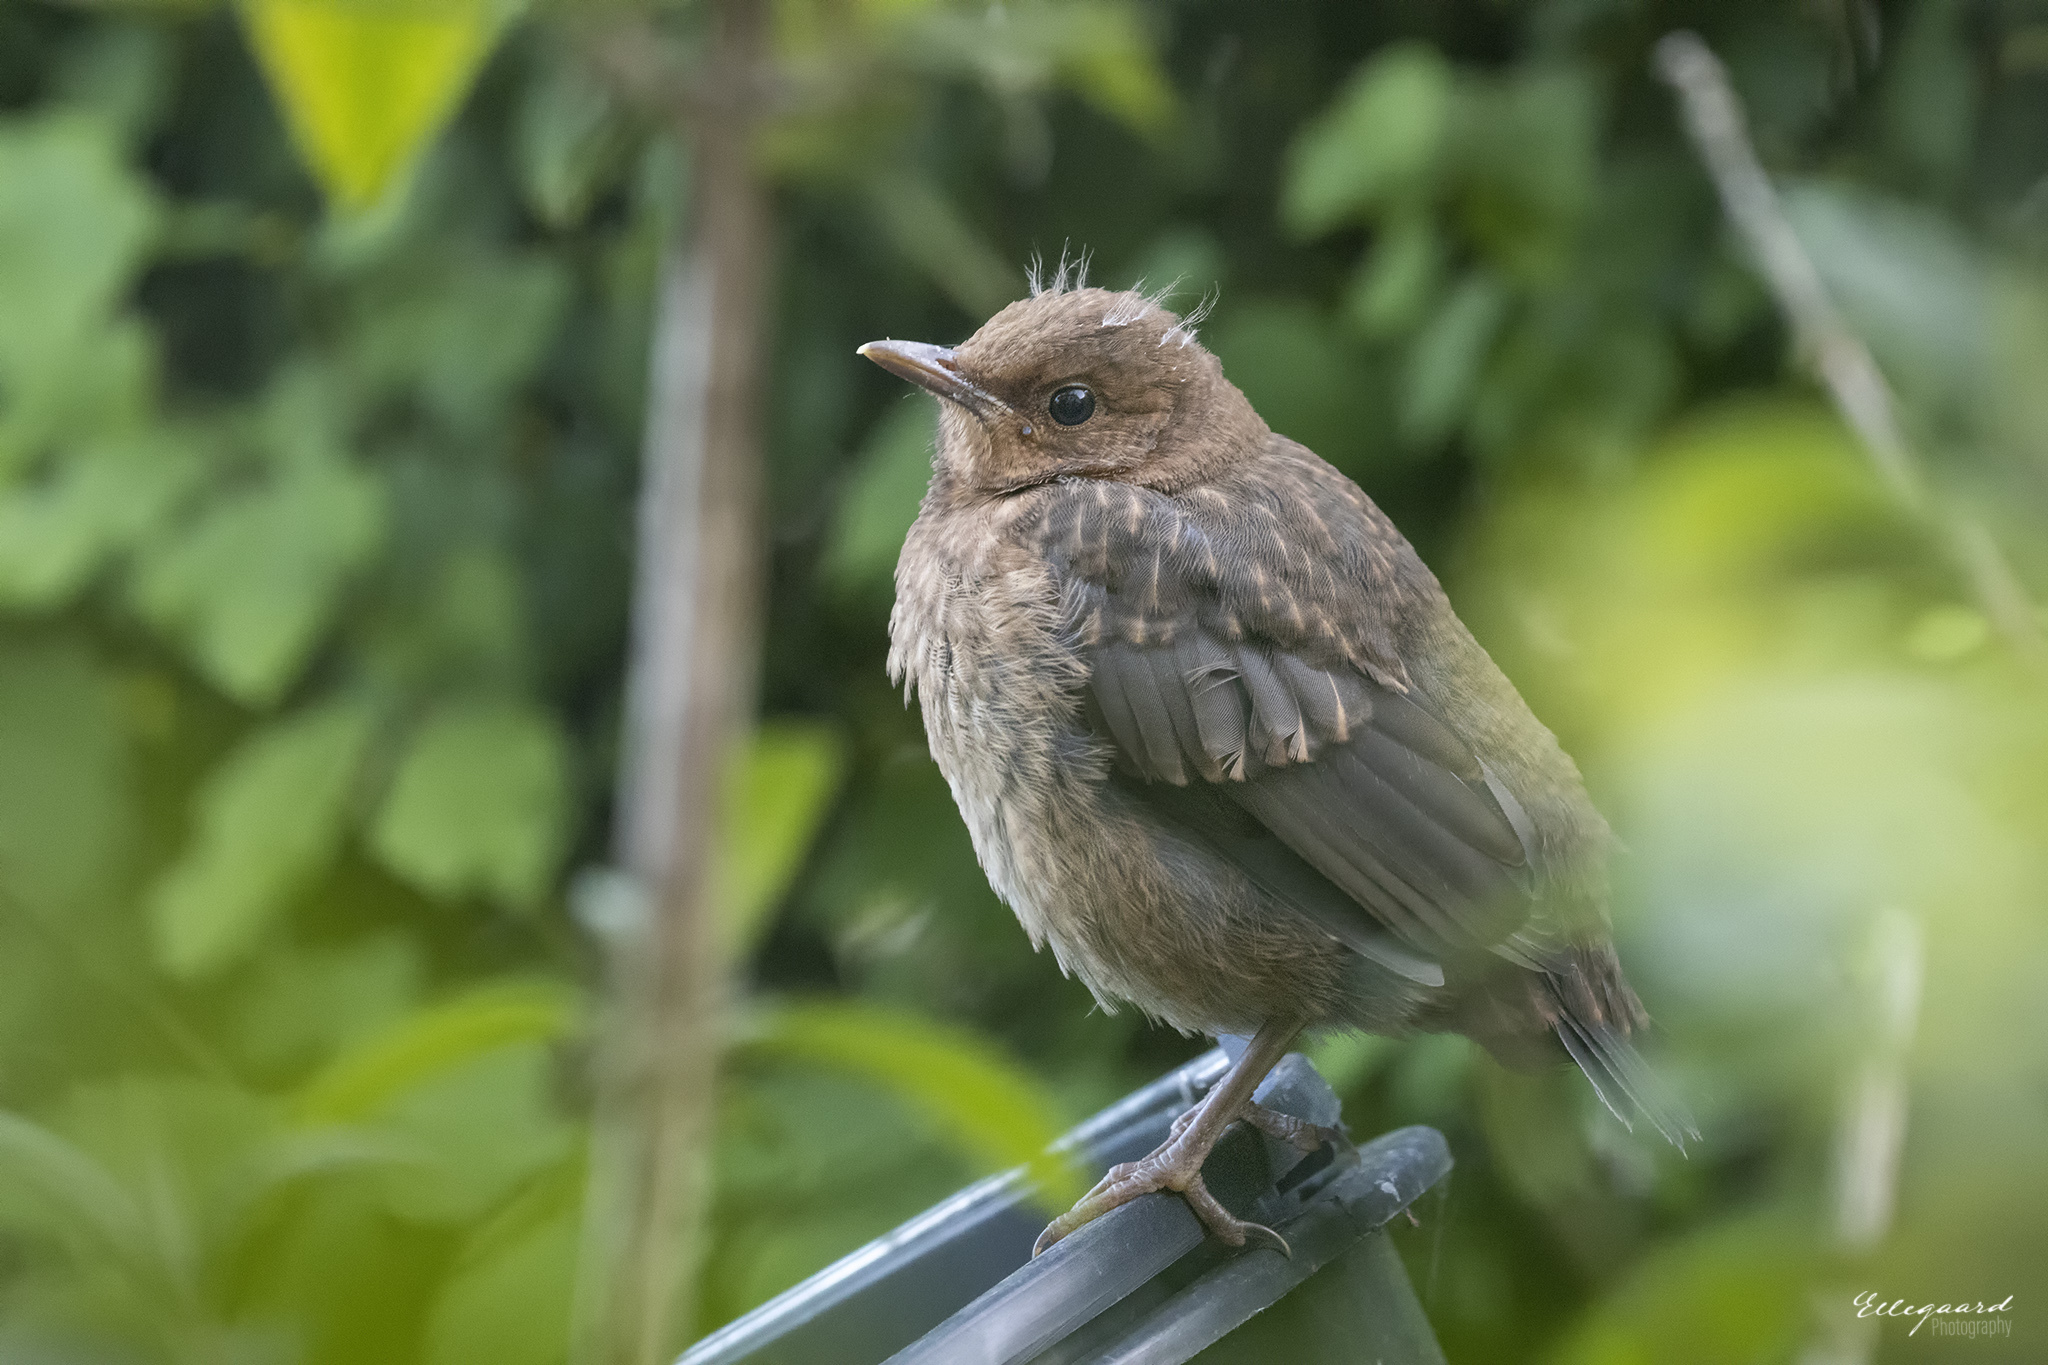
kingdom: Animalia
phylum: Chordata
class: Aves
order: Passeriformes
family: Turdidae
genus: Turdus
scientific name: Turdus merula
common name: Common blackbird
